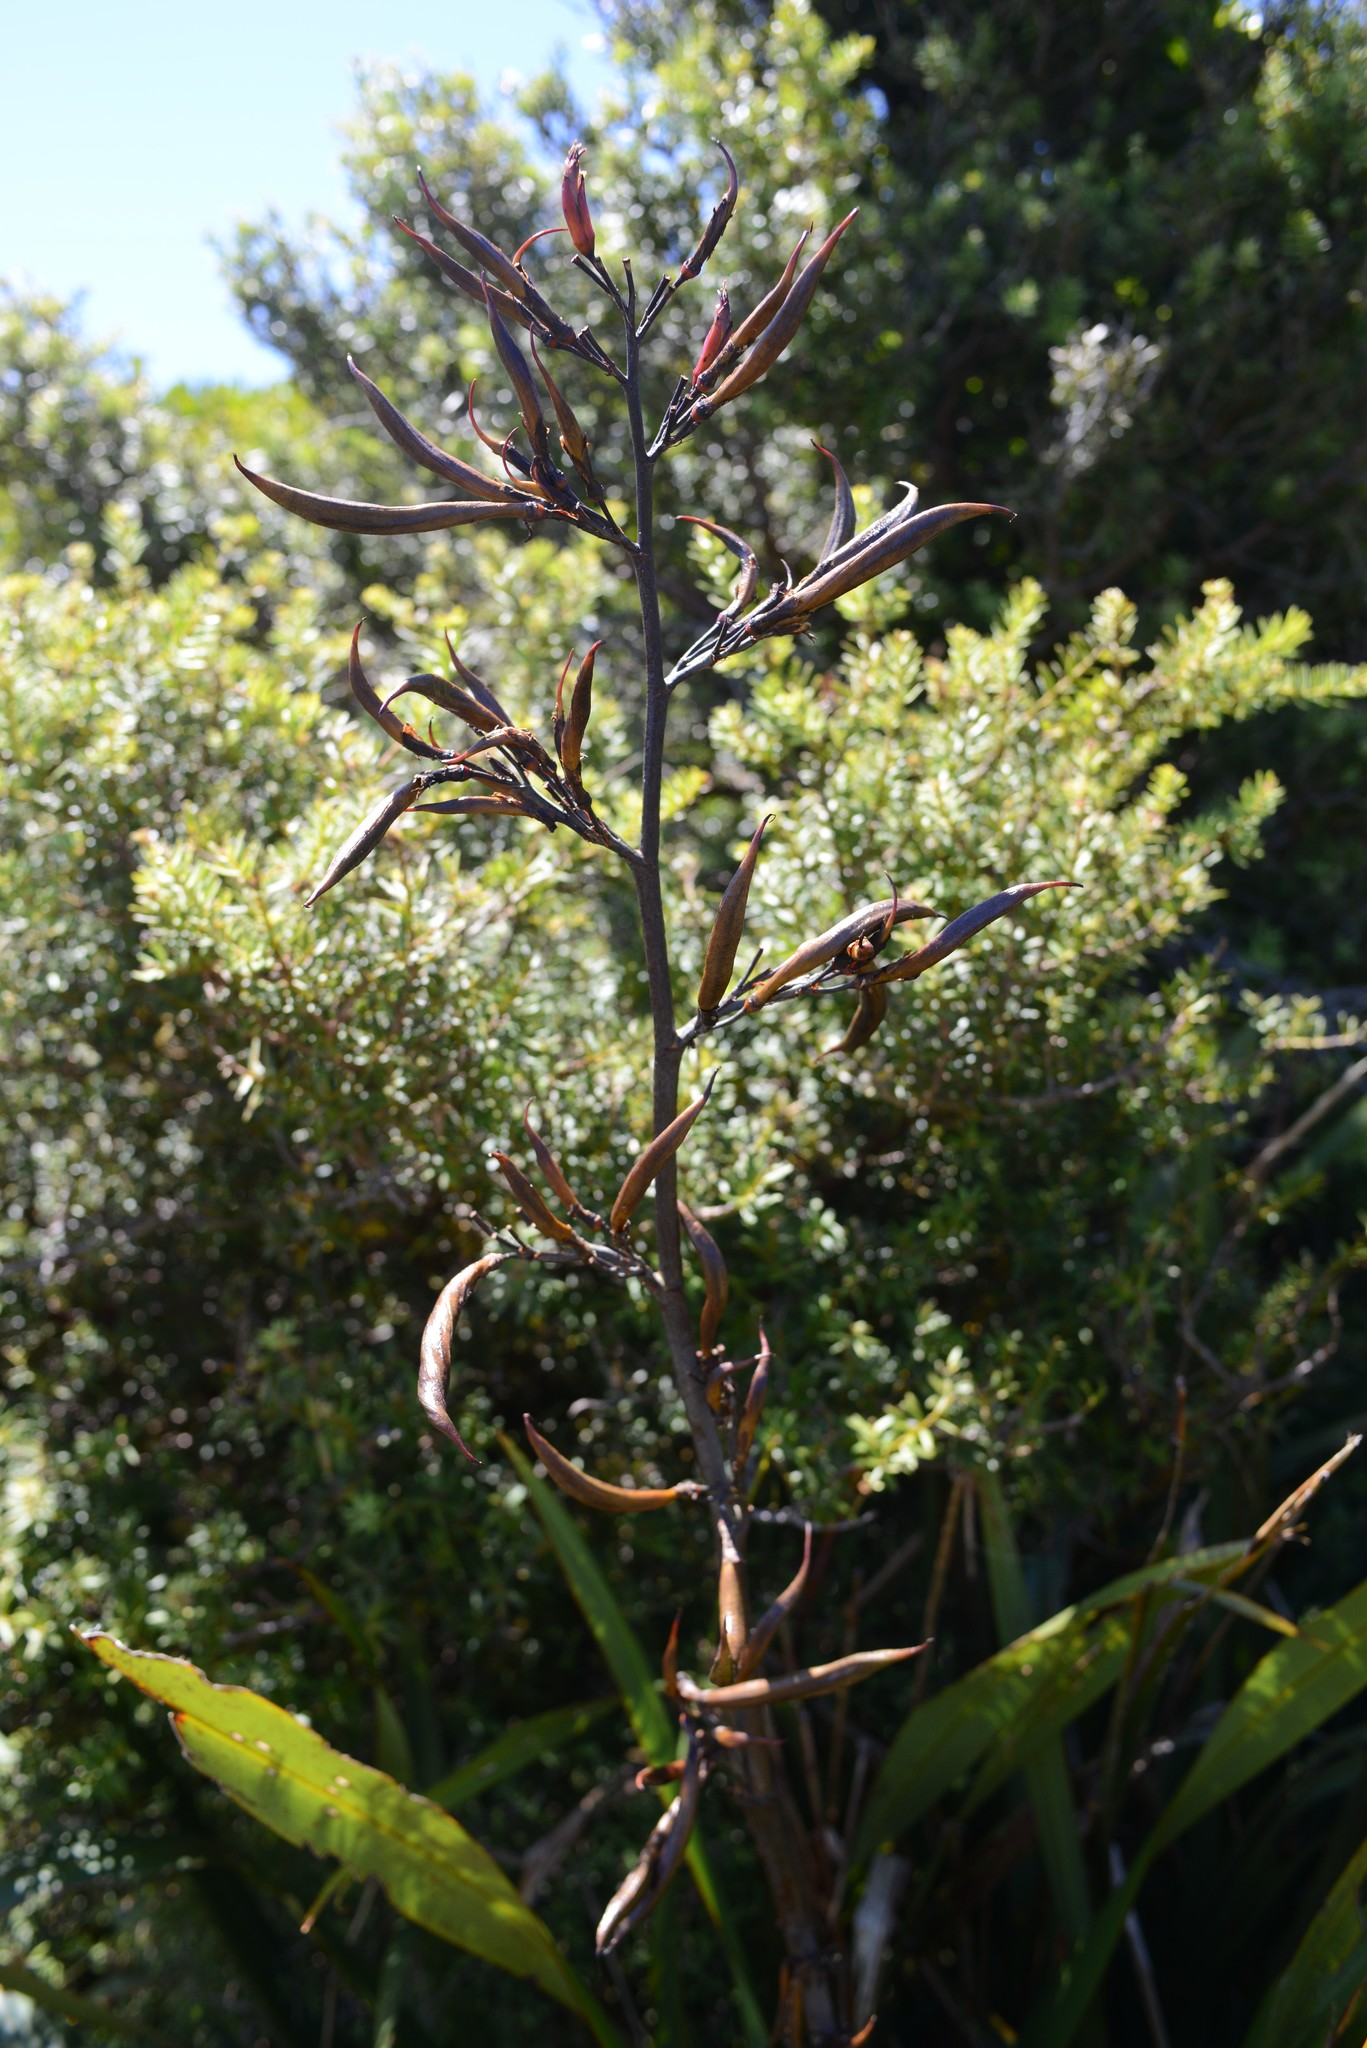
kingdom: Plantae
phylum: Tracheophyta
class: Liliopsida
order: Asparagales
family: Asphodelaceae
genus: Phormium
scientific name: Phormium colensoi
